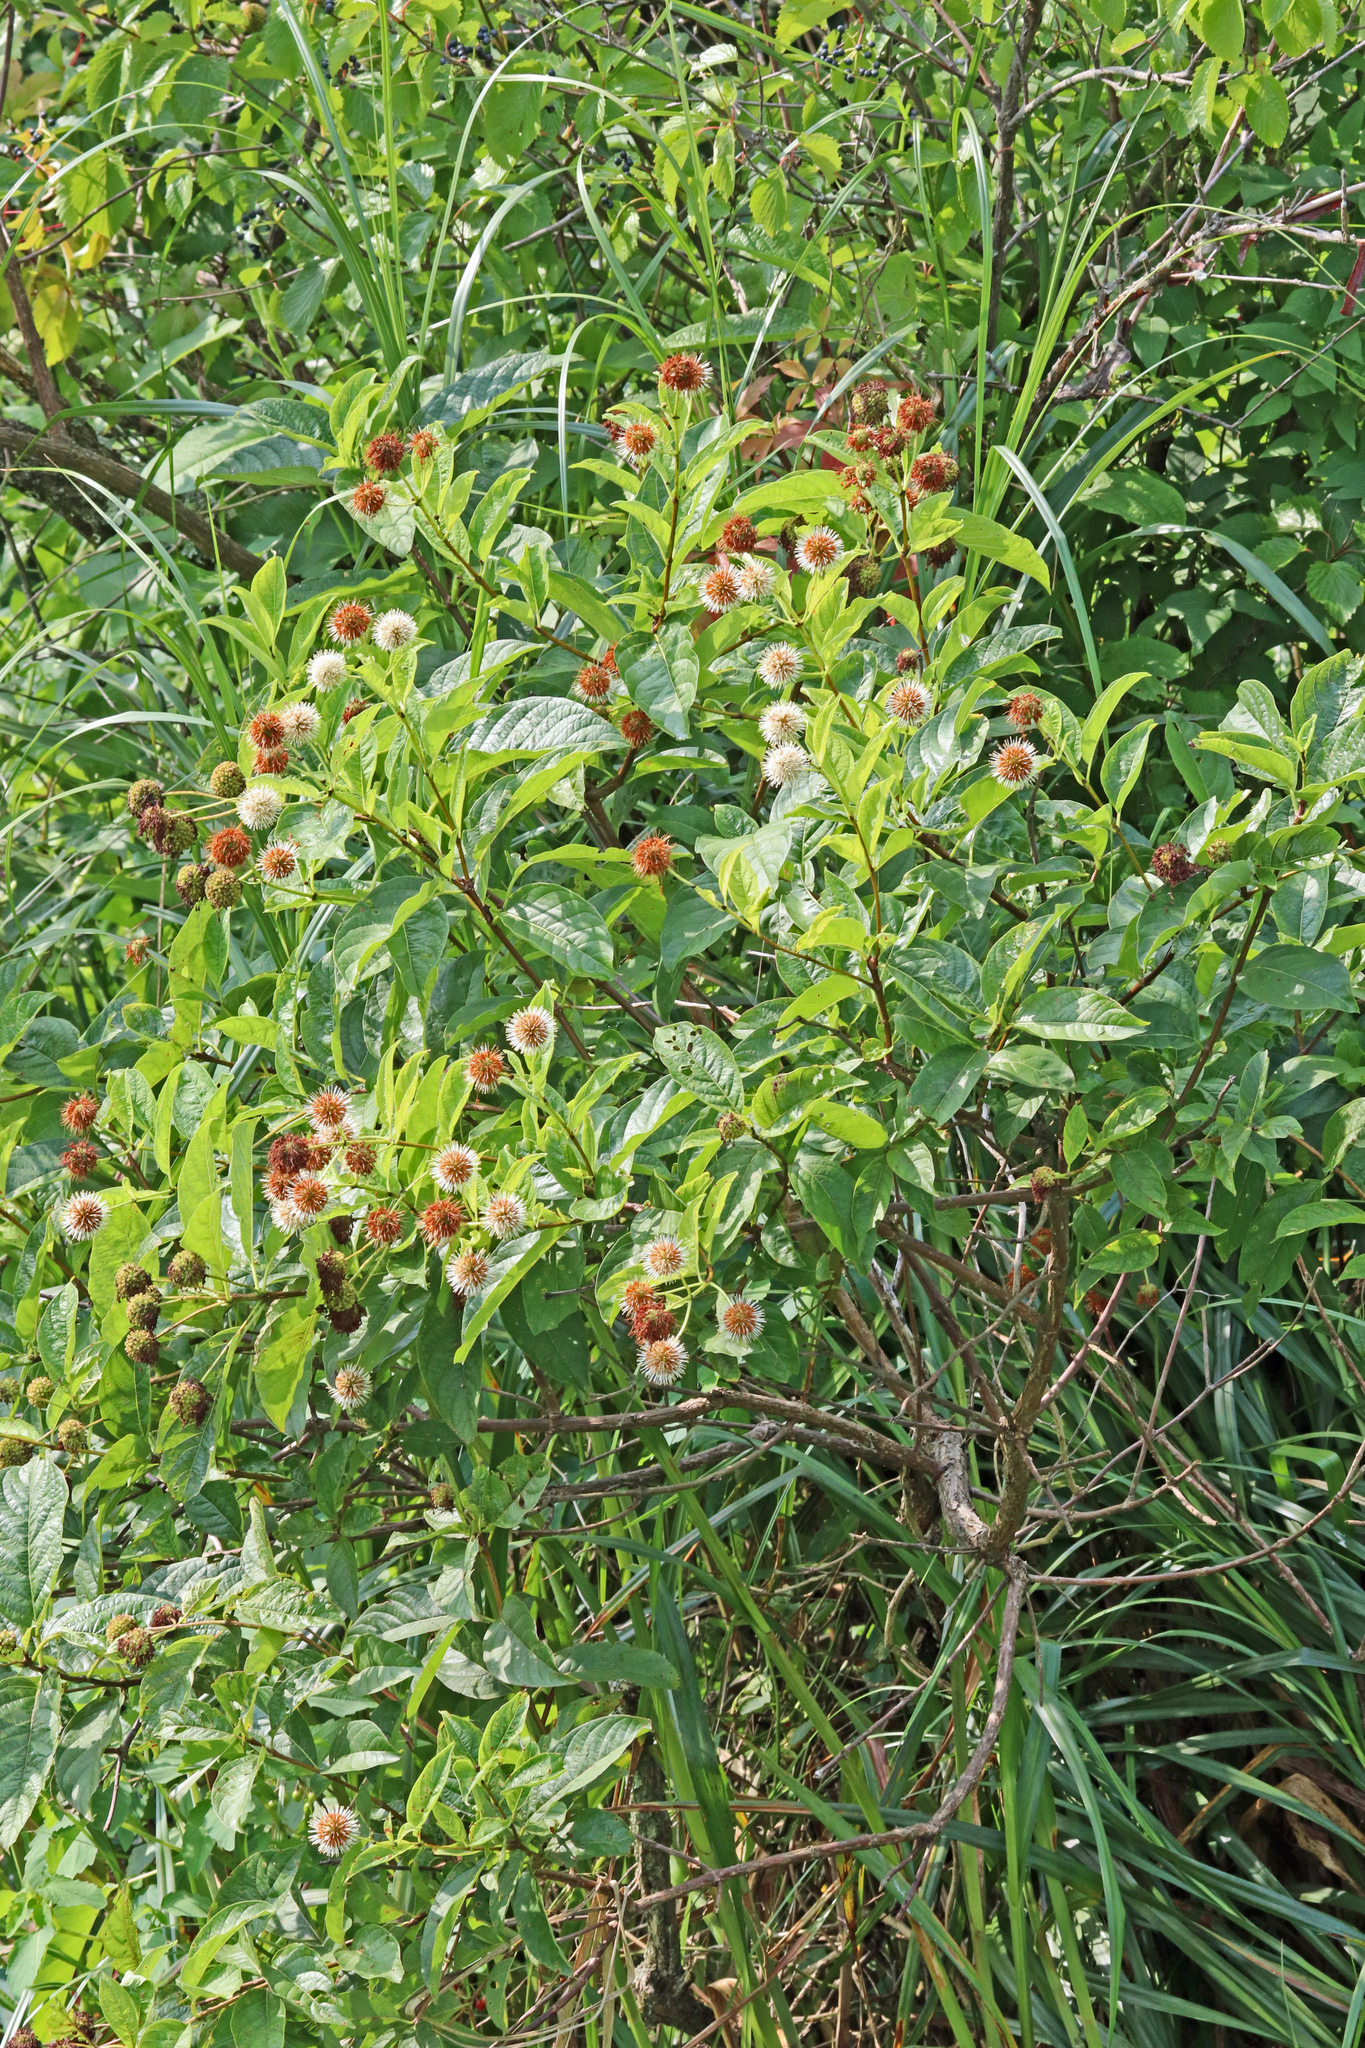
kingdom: Plantae
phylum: Tracheophyta
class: Magnoliopsida
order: Gentianales
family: Rubiaceae
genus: Cephalanthus
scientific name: Cephalanthus occidentalis
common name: Button-willow
